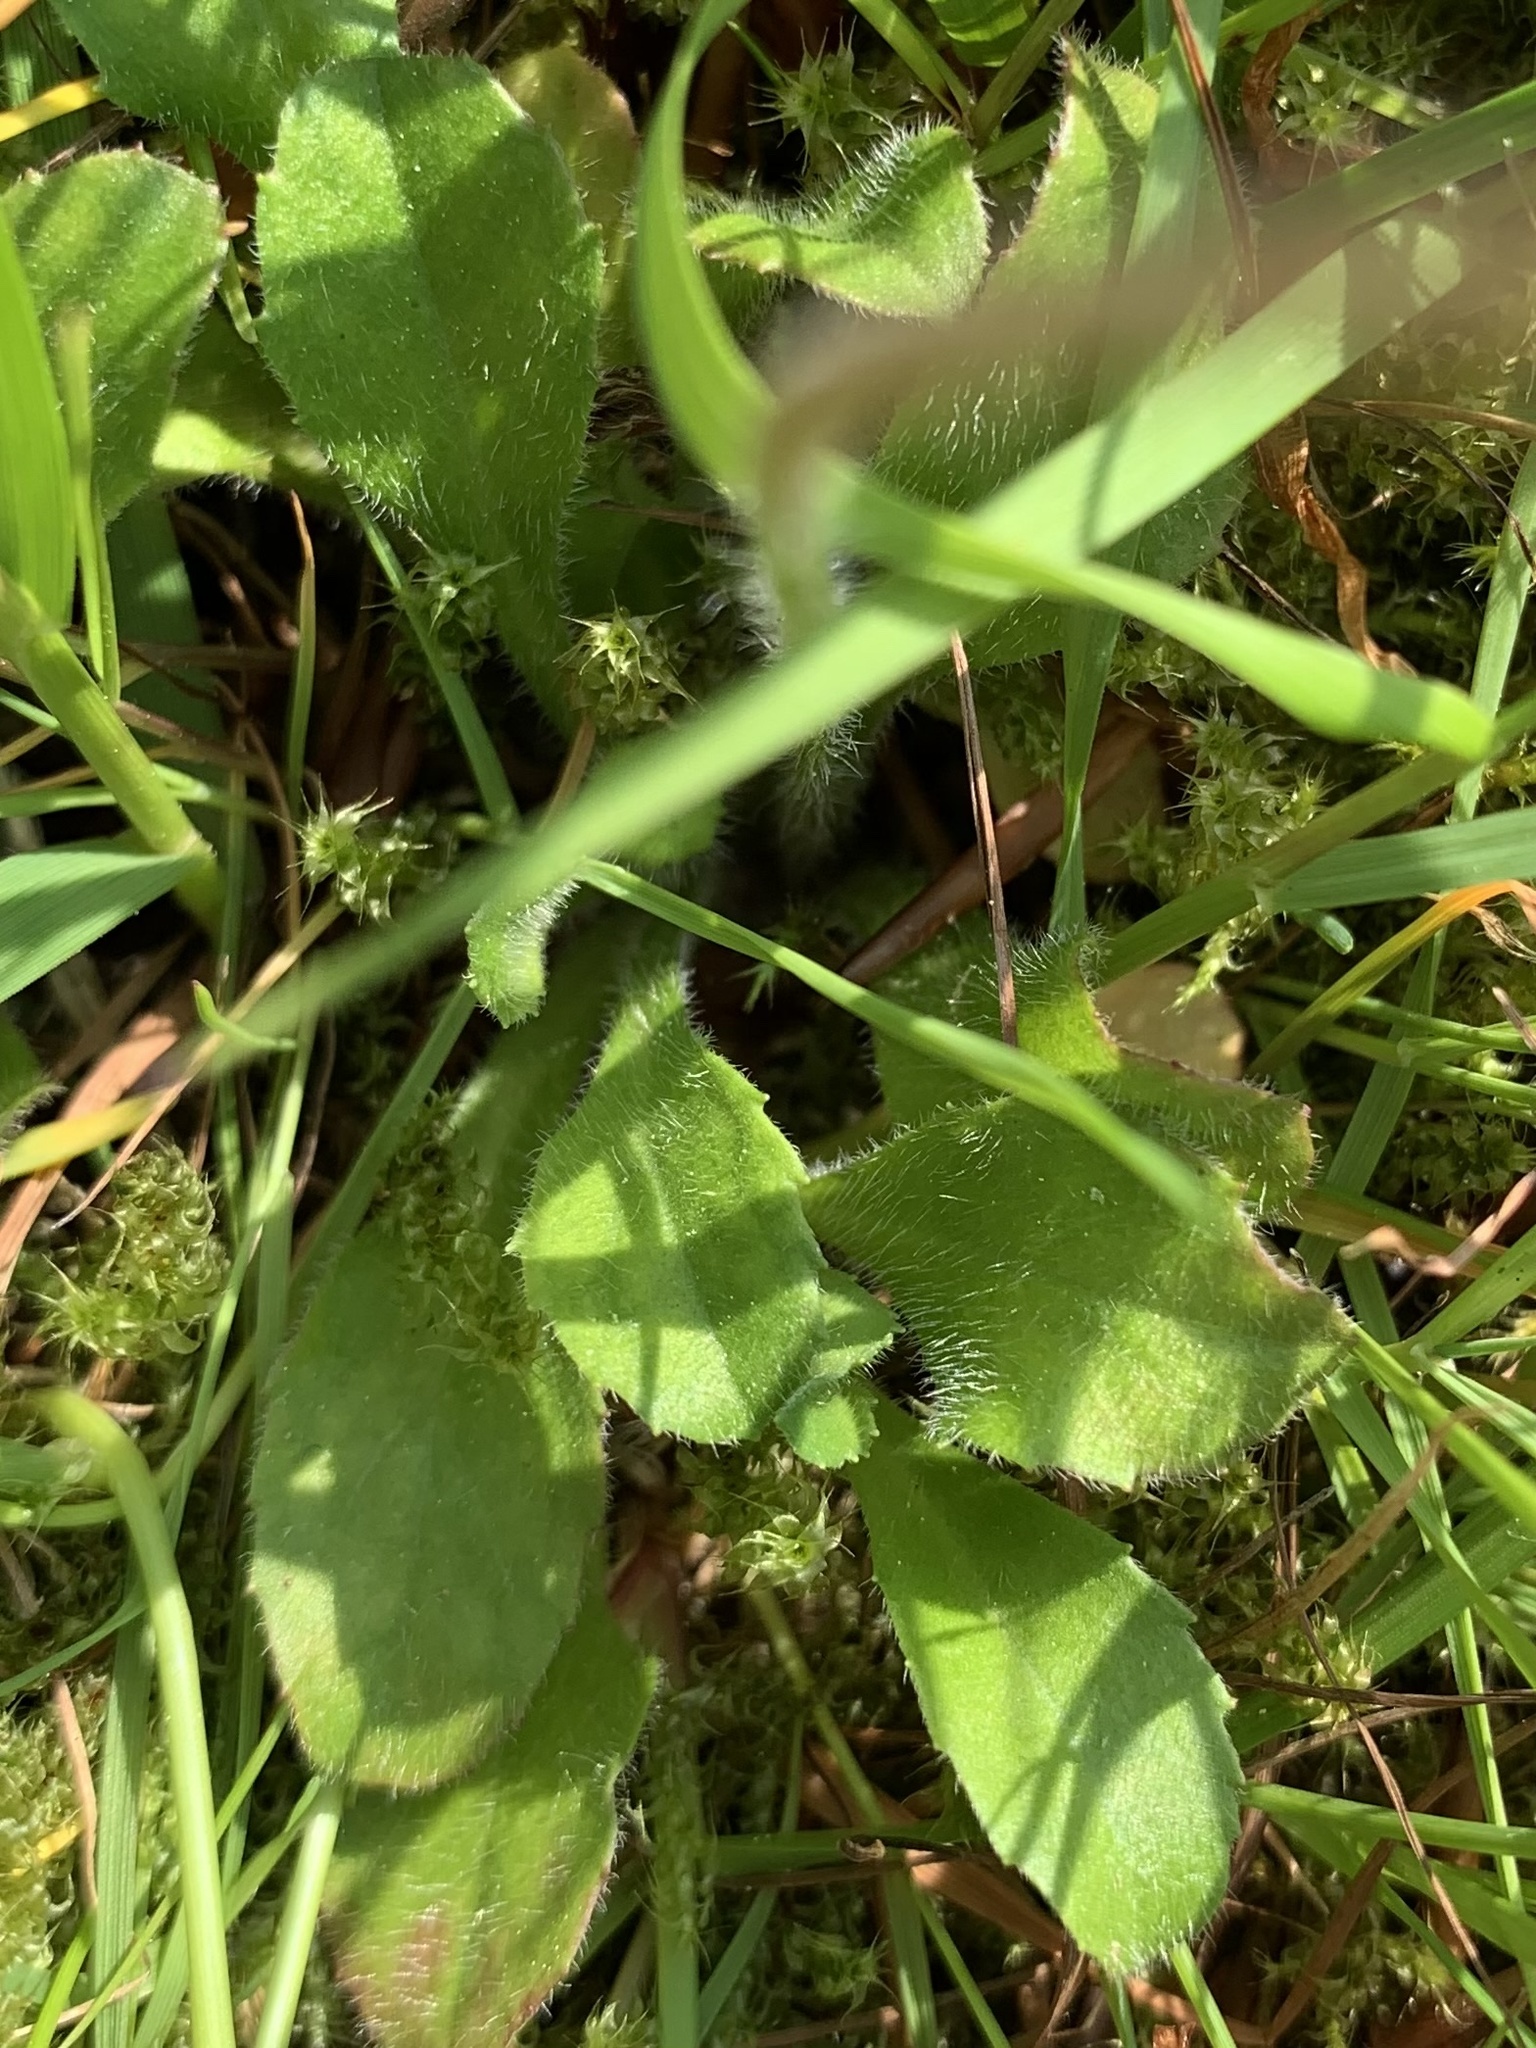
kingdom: Plantae
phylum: Tracheophyta
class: Magnoliopsida
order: Asterales
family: Asteraceae
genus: Bellis
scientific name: Bellis perennis
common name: Lawndaisy
